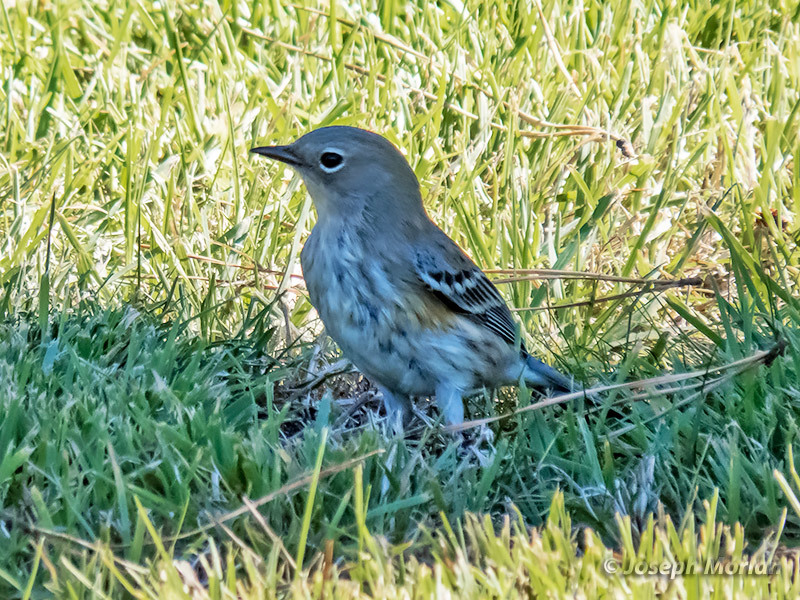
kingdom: Animalia
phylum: Chordata
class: Aves
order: Passeriformes
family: Parulidae
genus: Setophaga
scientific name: Setophaga coronata
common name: Myrtle warbler
